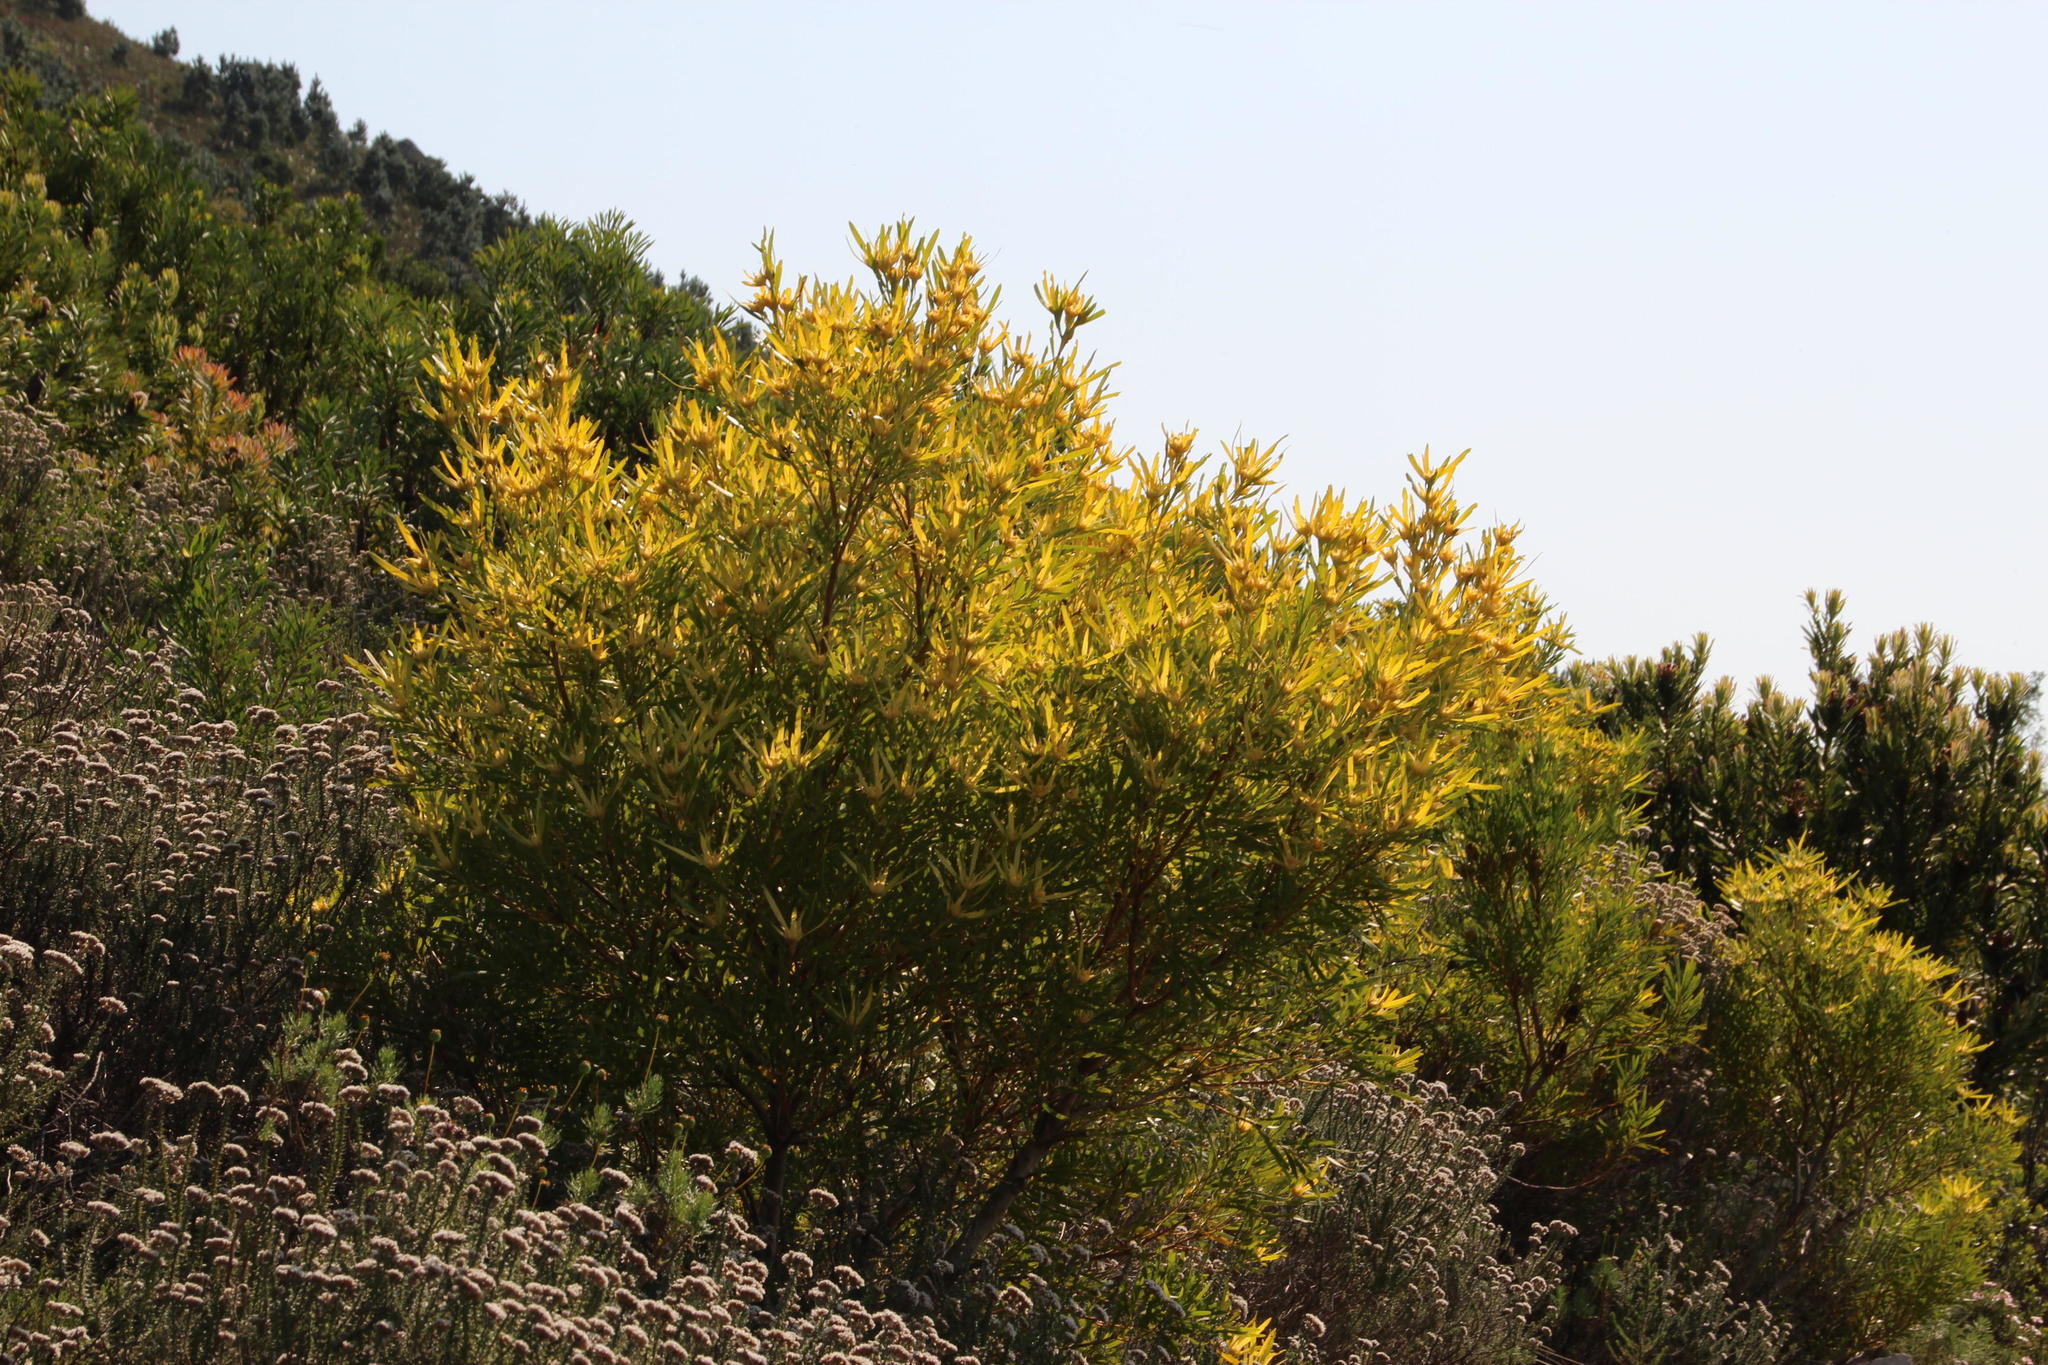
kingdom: Plantae
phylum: Tracheophyta
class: Magnoliopsida
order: Proteales
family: Proteaceae
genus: Leucadendron
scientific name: Leucadendron eucalyptifolium
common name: Gum-leaved conebush
